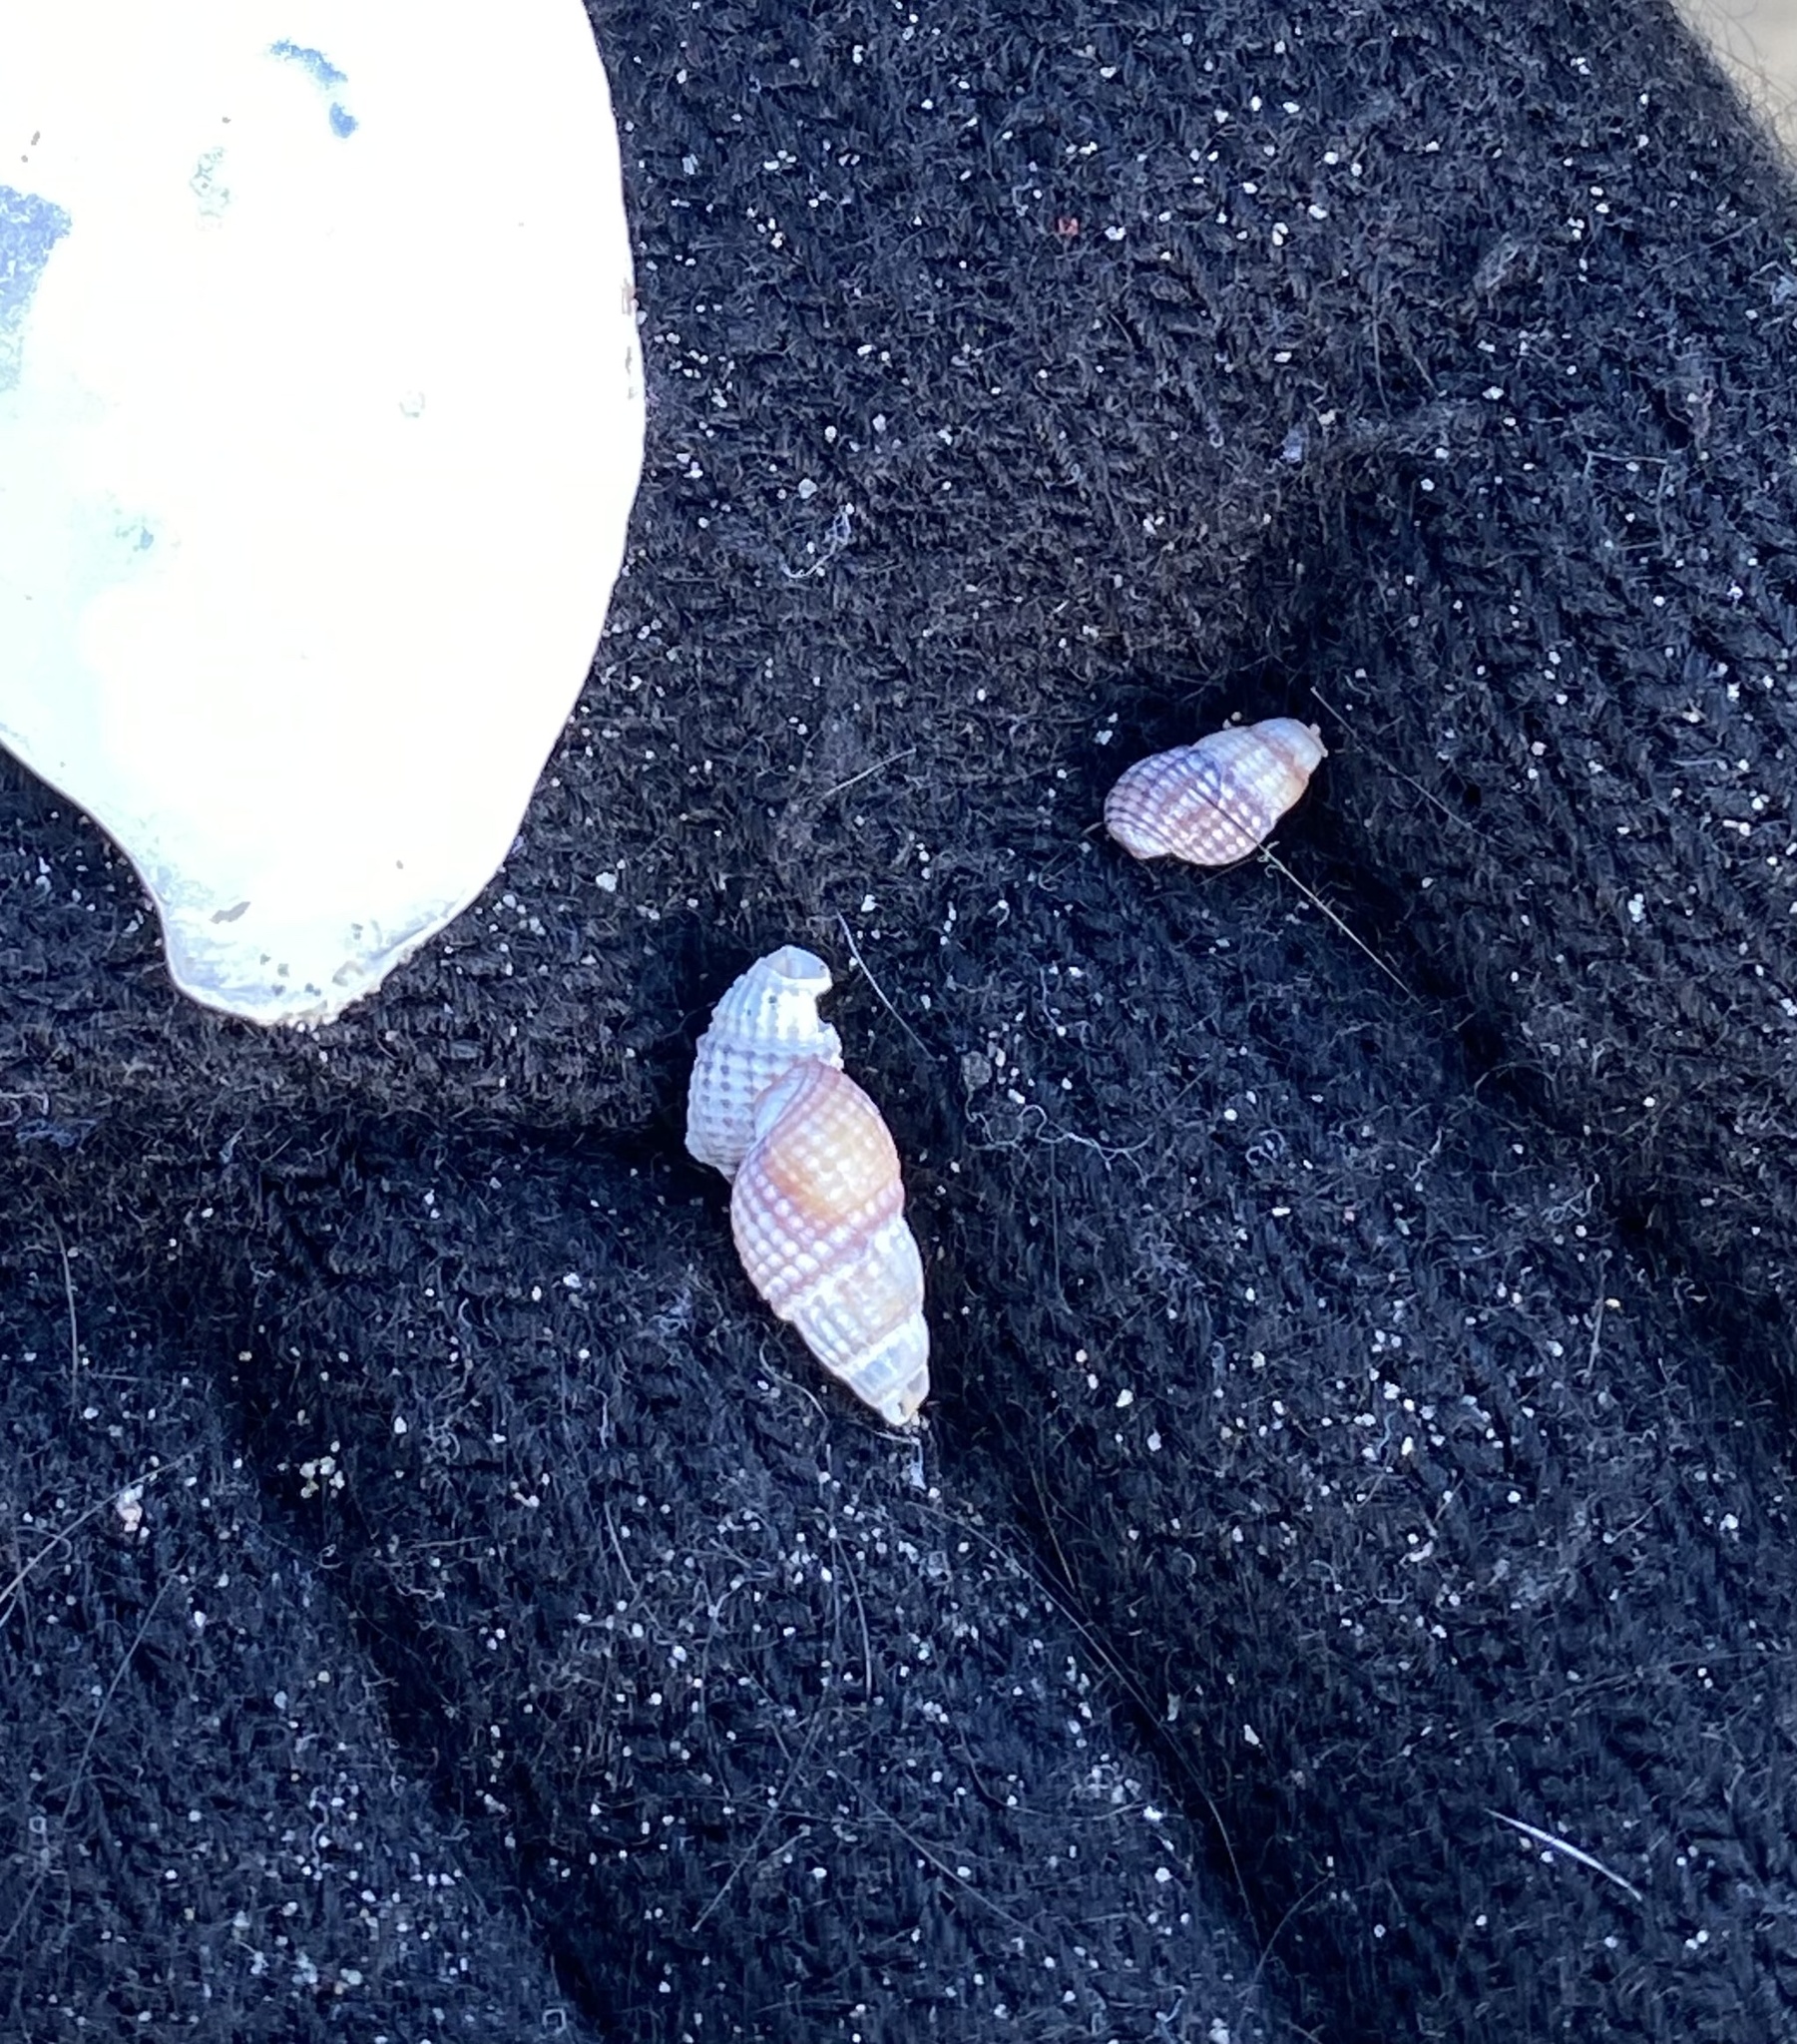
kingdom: Animalia
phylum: Mollusca
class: Gastropoda
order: Neogastropoda
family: Nassariidae
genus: Ilyanassa
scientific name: Ilyanassa trivittata
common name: Three-line mudsnail
